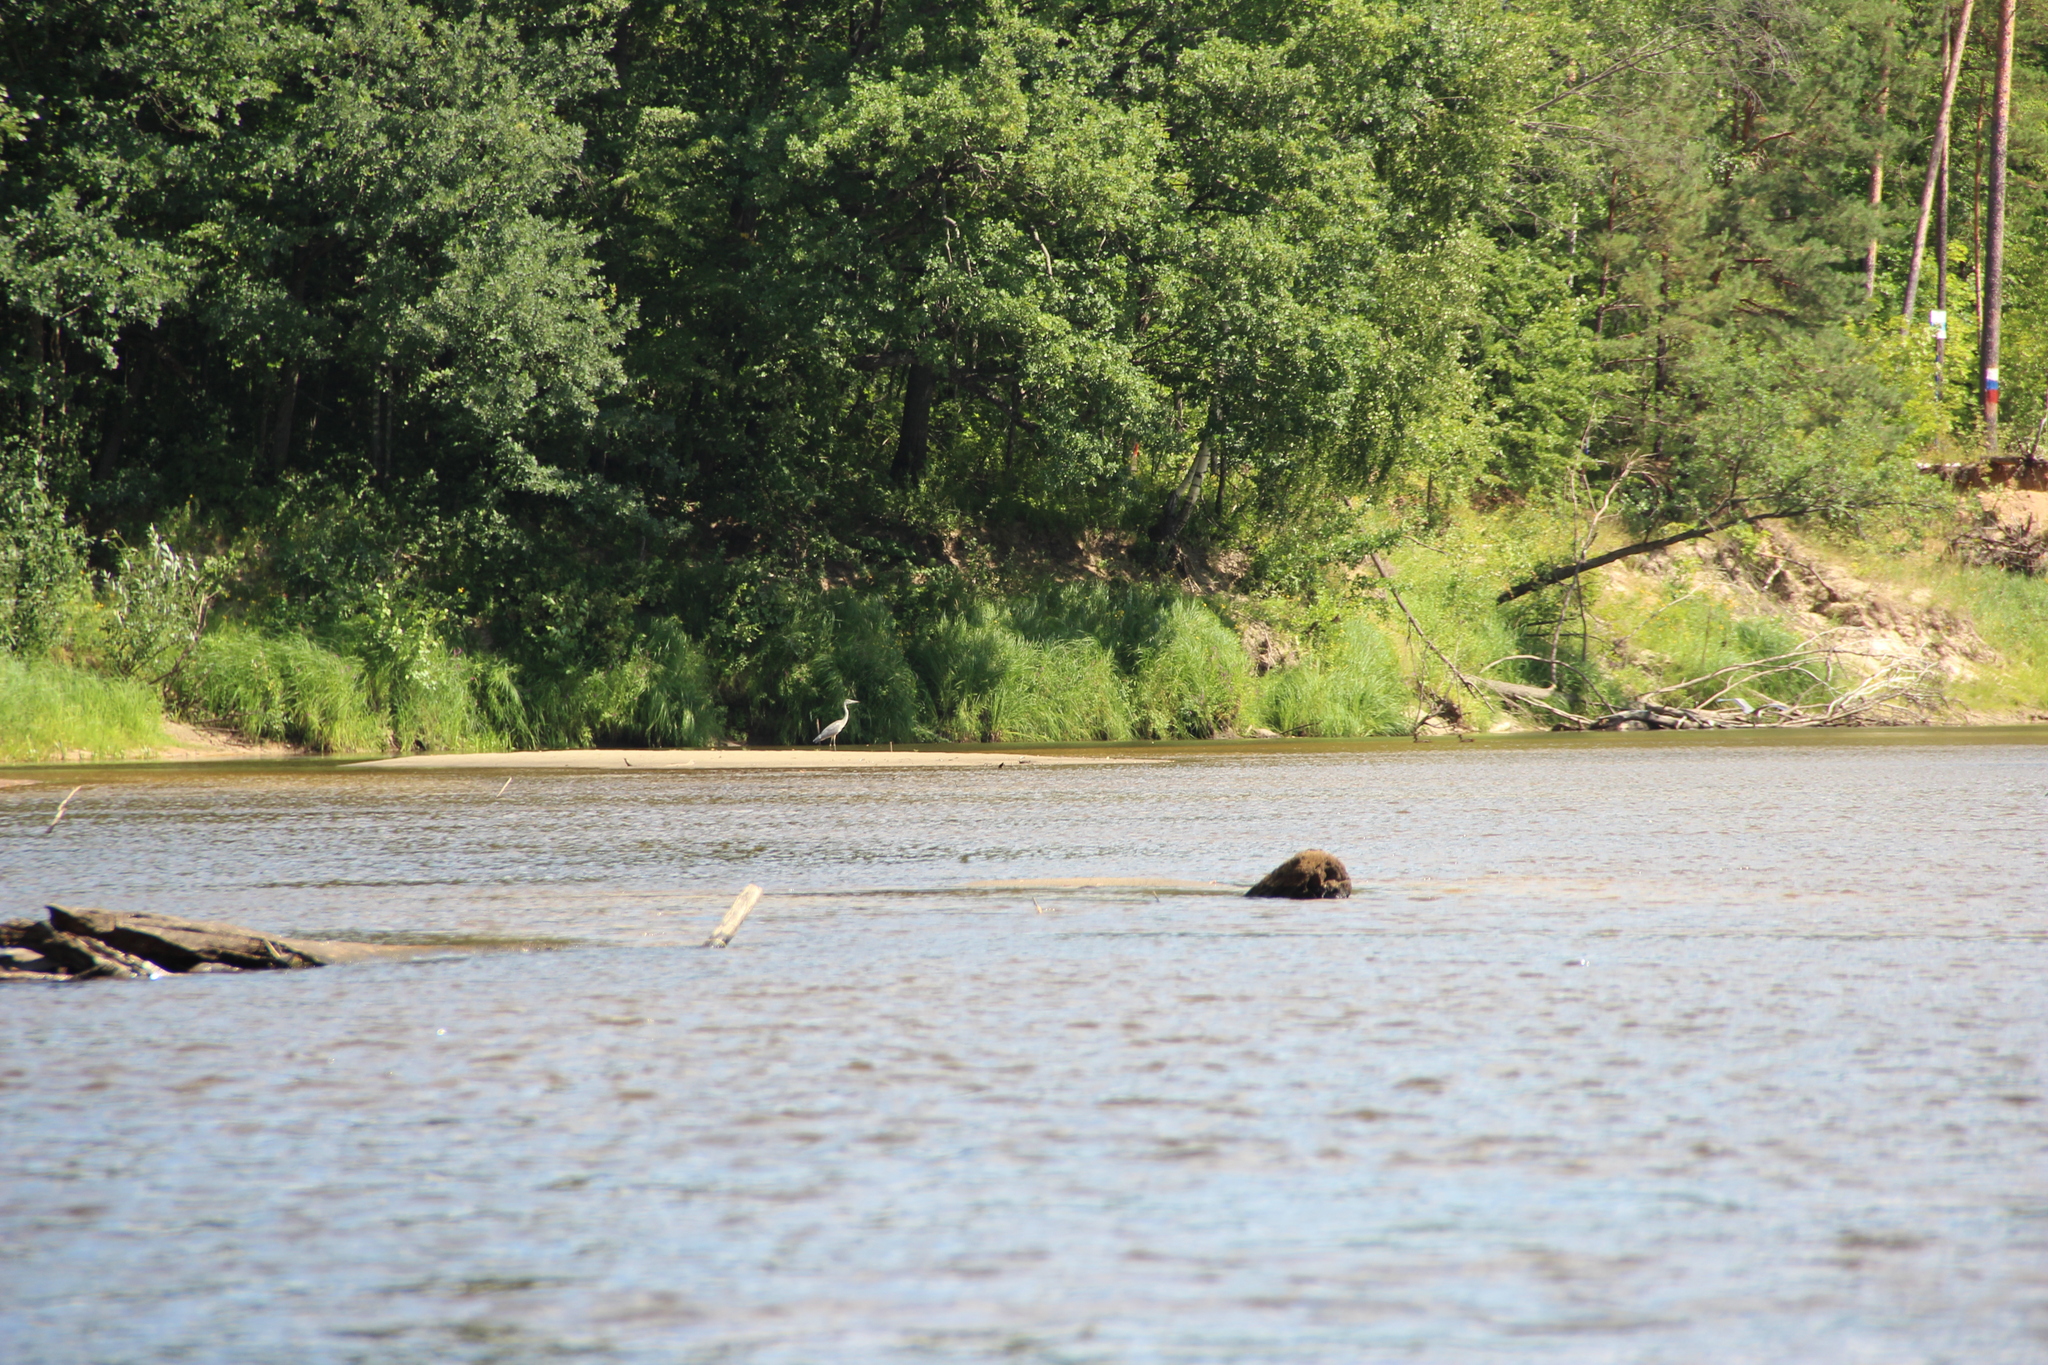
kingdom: Animalia
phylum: Chordata
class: Aves
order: Pelecaniformes
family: Ardeidae
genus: Ardea
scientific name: Ardea cinerea
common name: Grey heron
